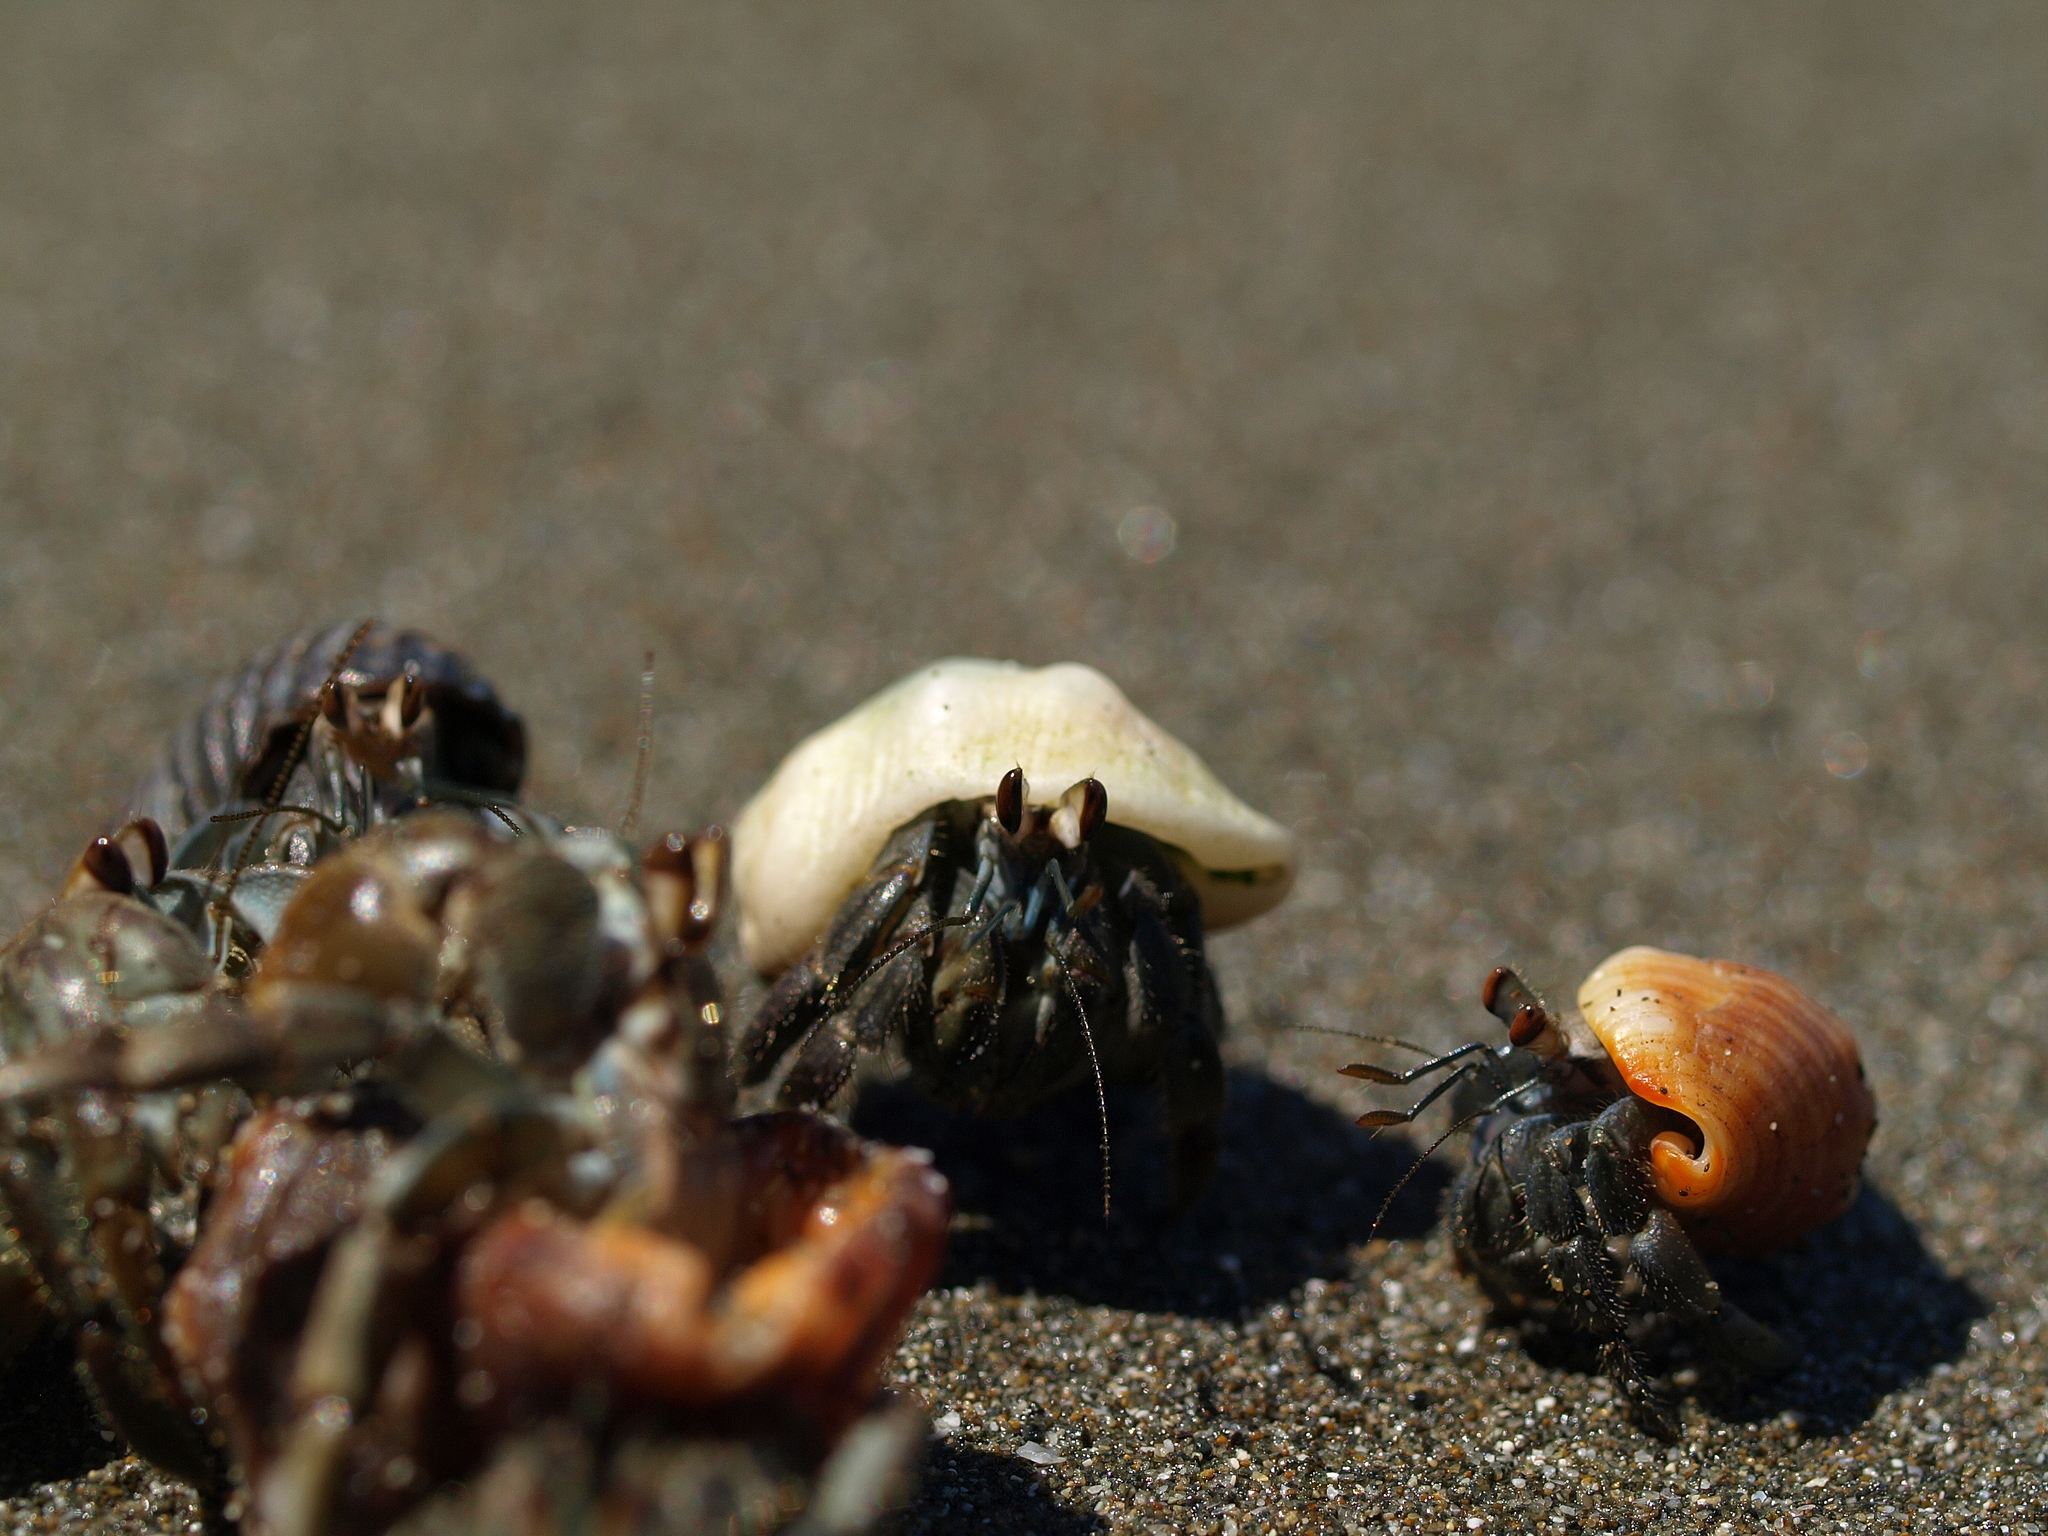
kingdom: Animalia
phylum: Arthropoda
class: Malacostraca
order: Decapoda
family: Coenobitidae
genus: Coenobita
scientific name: Coenobita compressus
